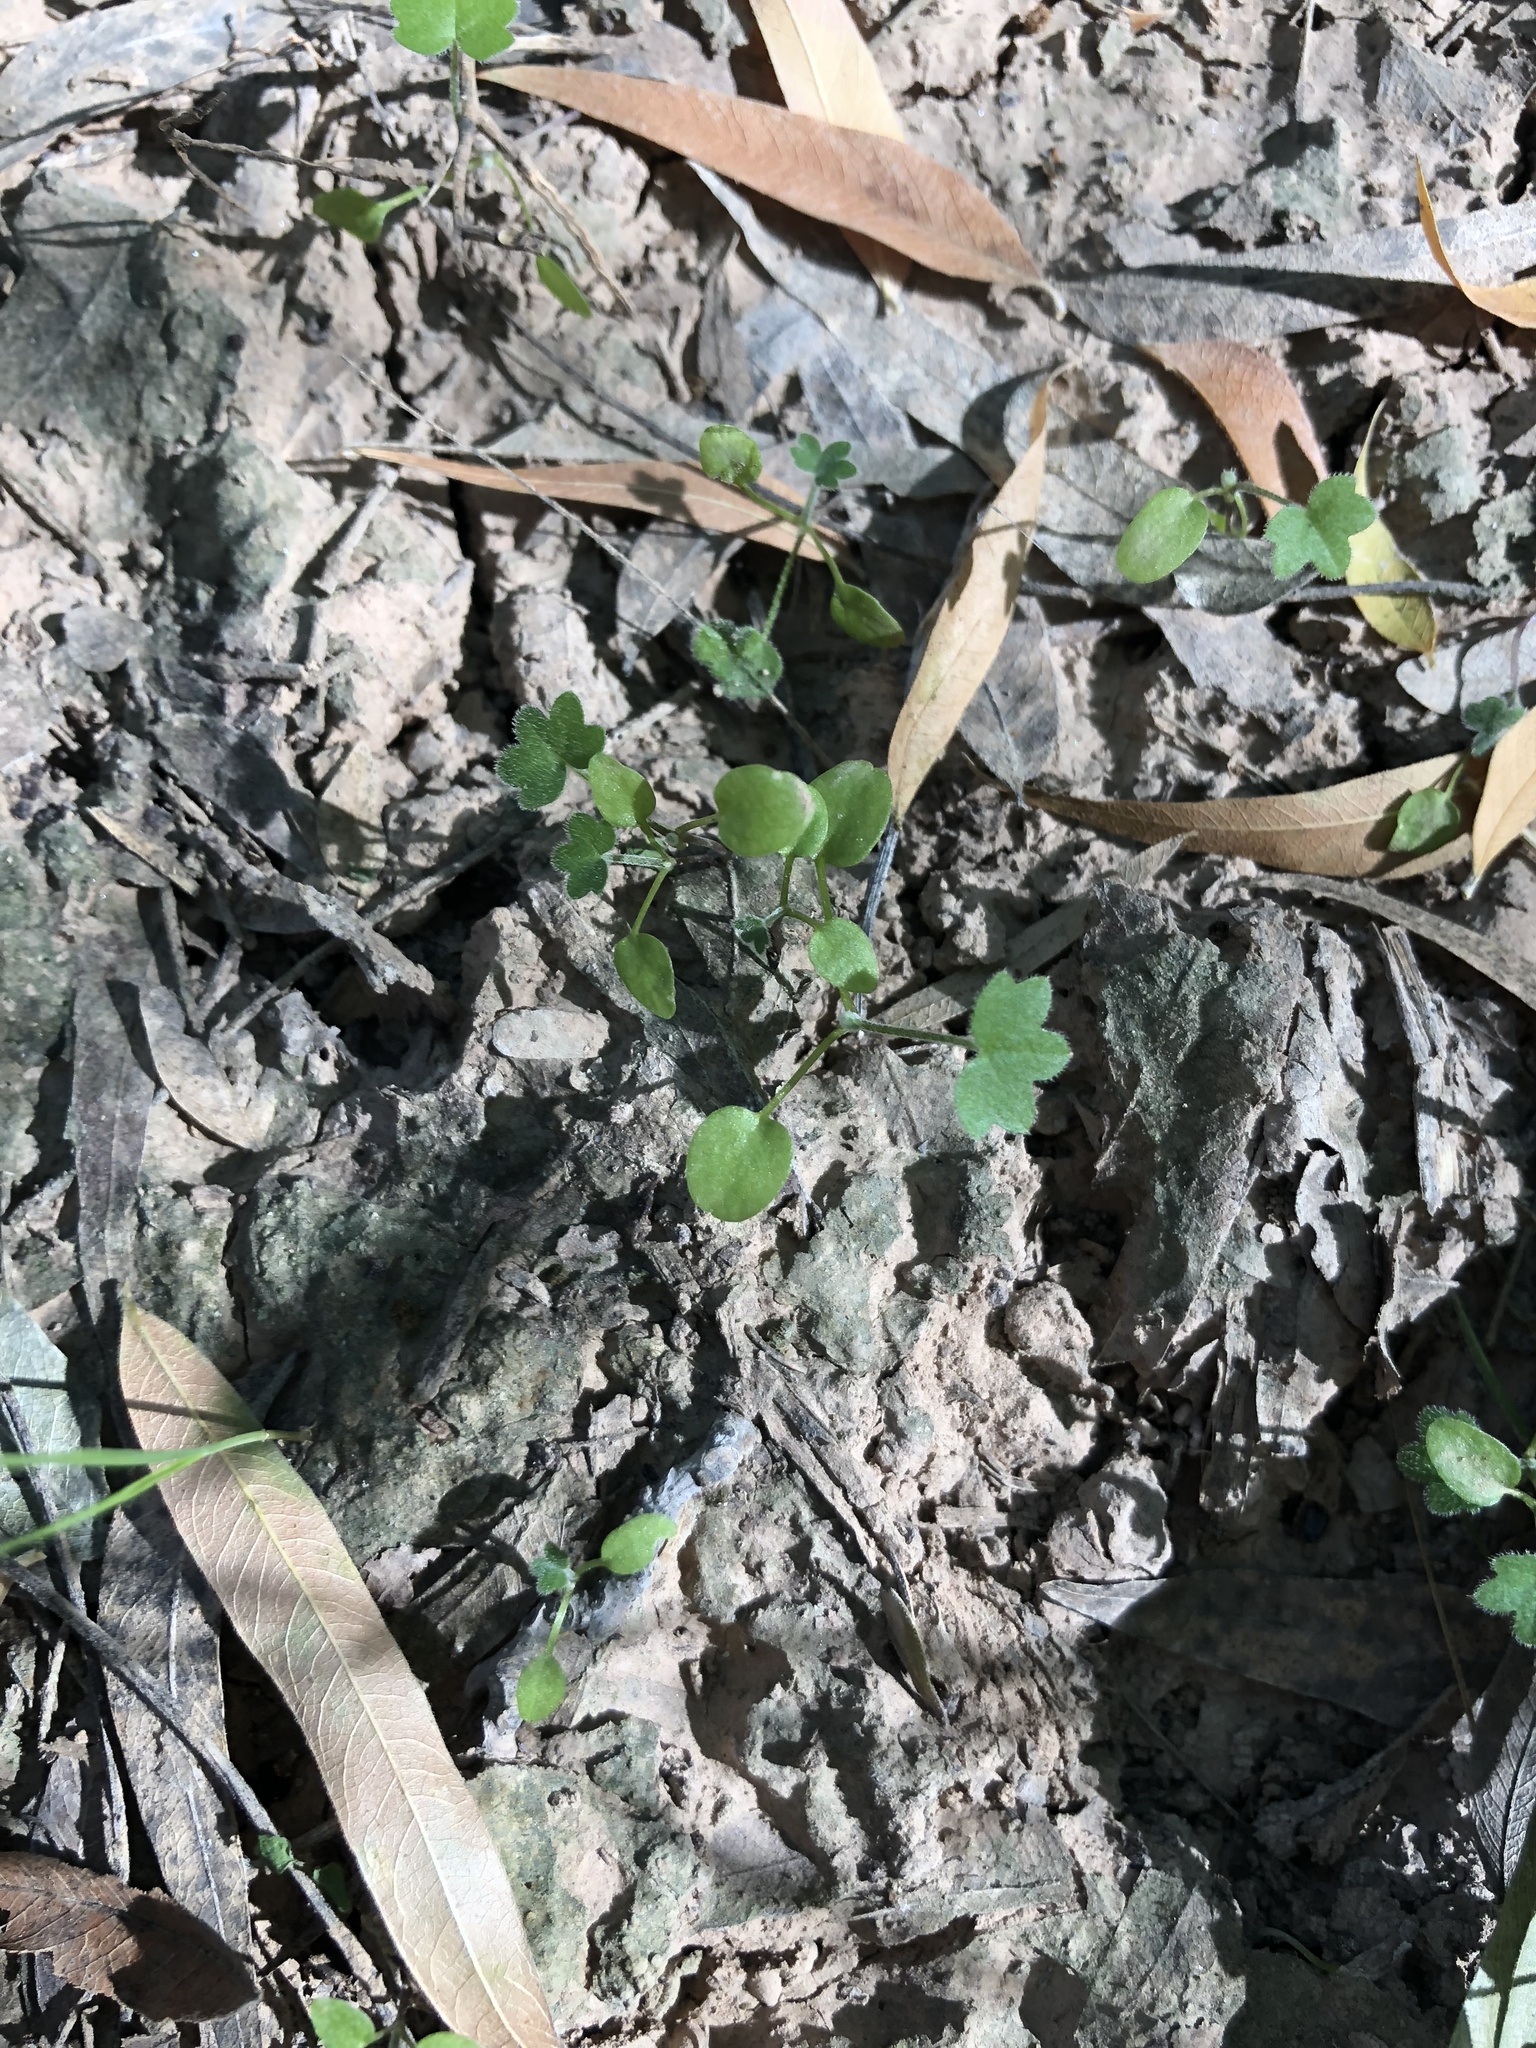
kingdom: Plantae
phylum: Tracheophyta
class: Magnoliopsida
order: Apiales
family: Apiaceae
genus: Bowlesia
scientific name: Bowlesia incana
